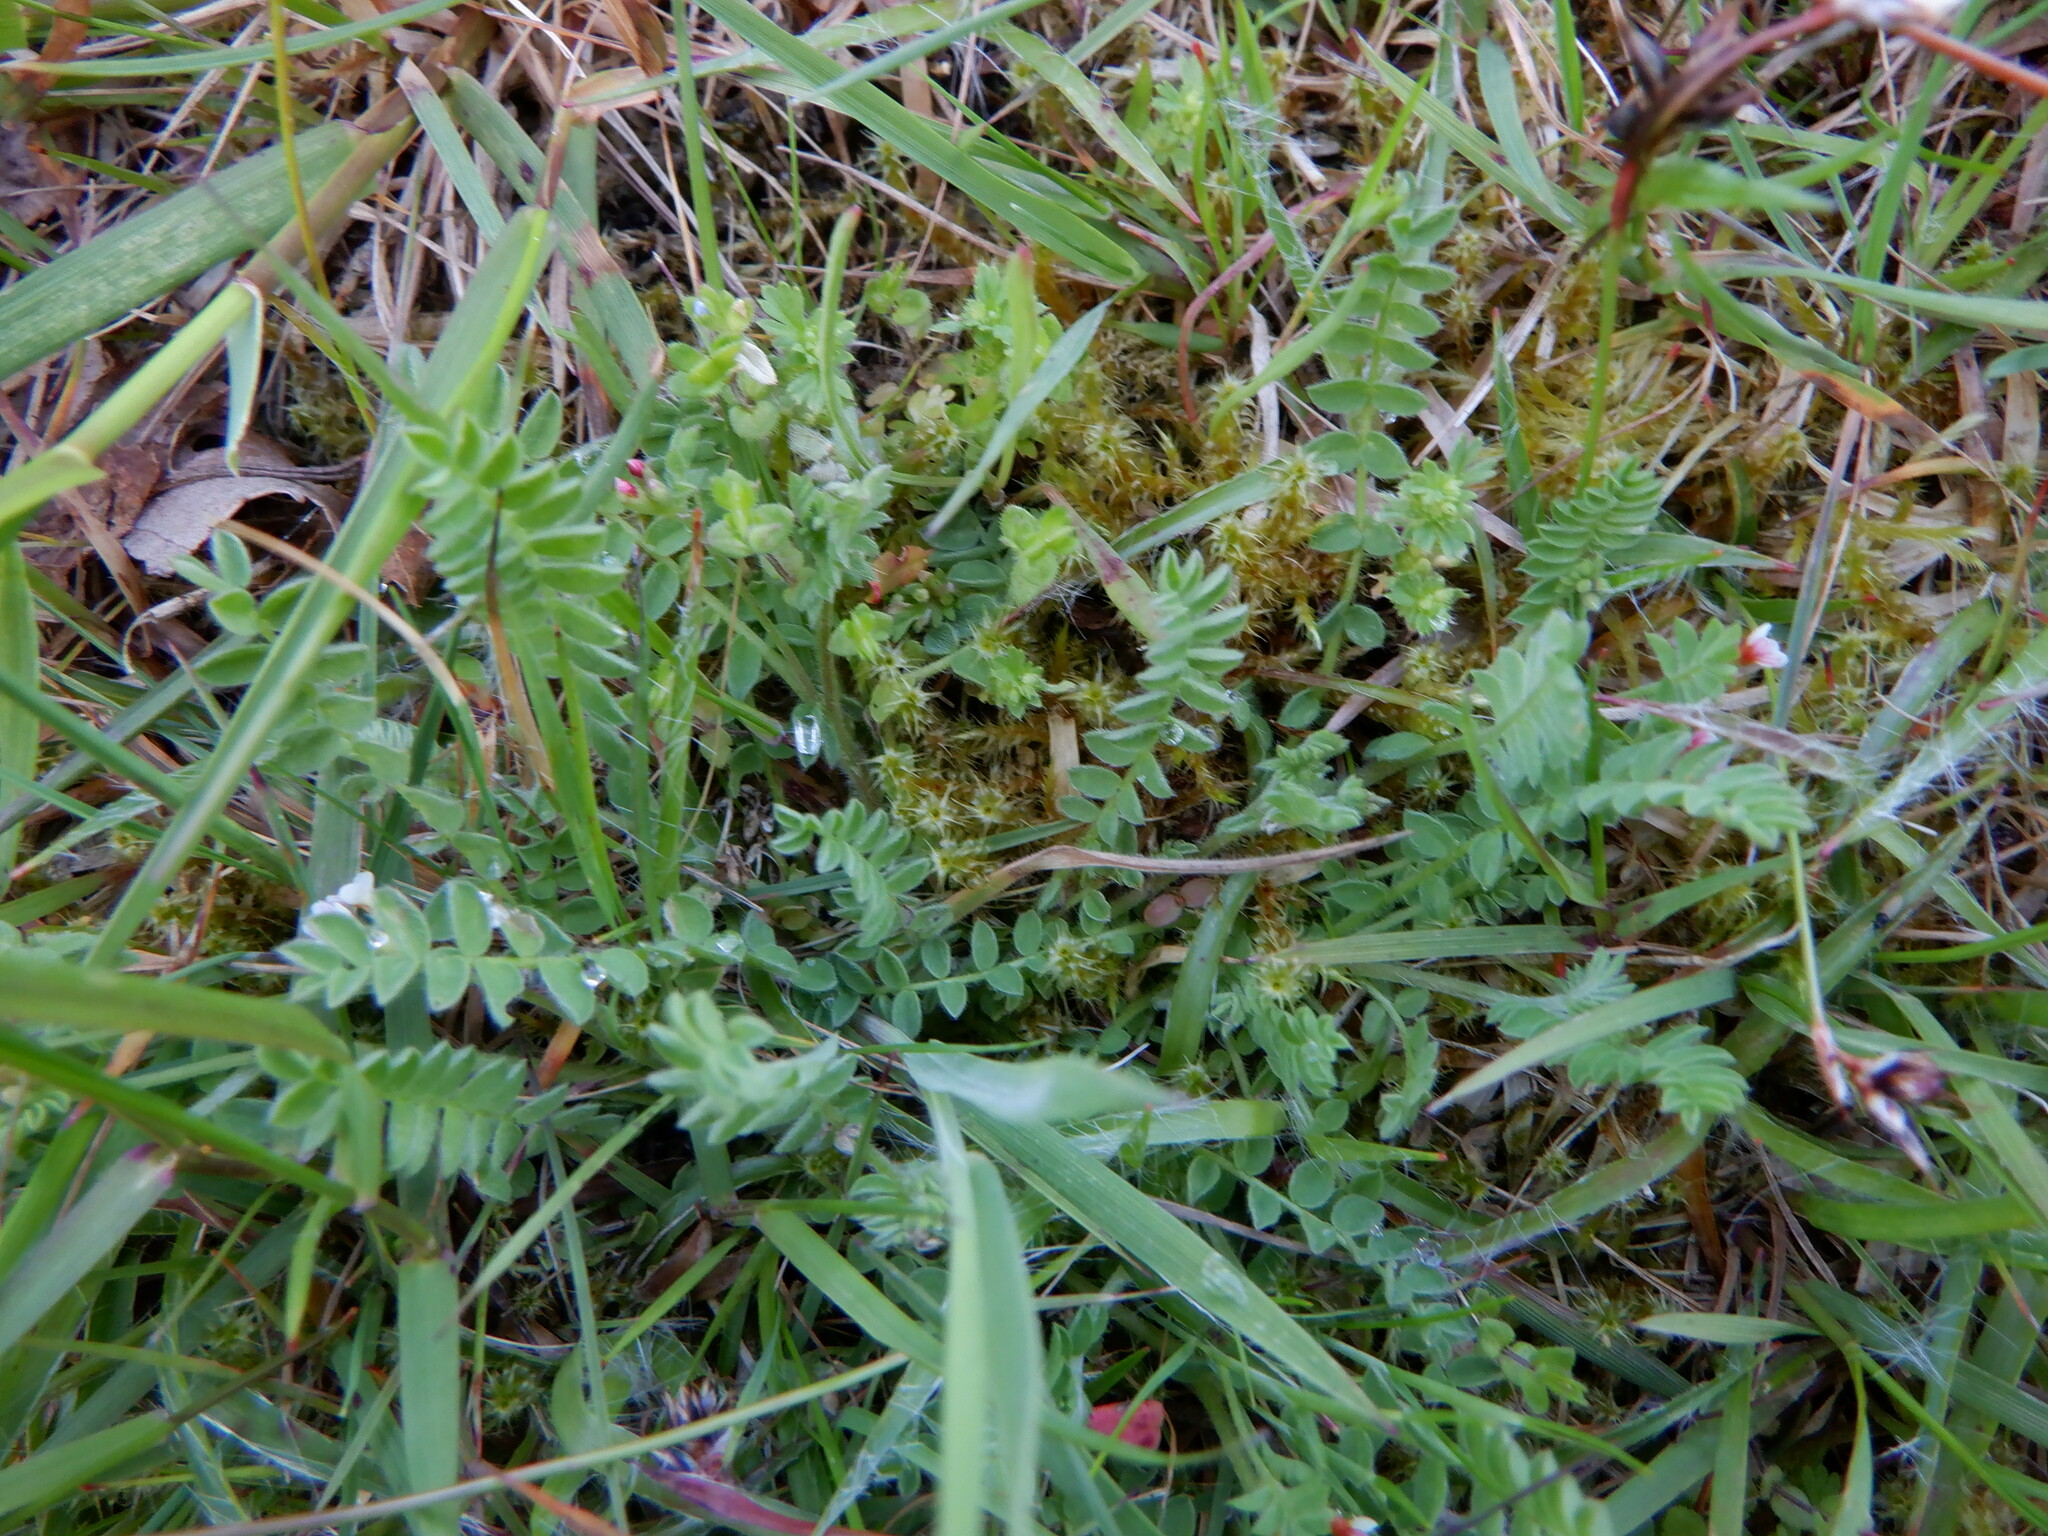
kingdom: Plantae
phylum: Tracheophyta
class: Magnoliopsida
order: Fabales
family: Fabaceae
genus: Ornithopus
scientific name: Ornithopus perpusillus
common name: Bird's-foot
